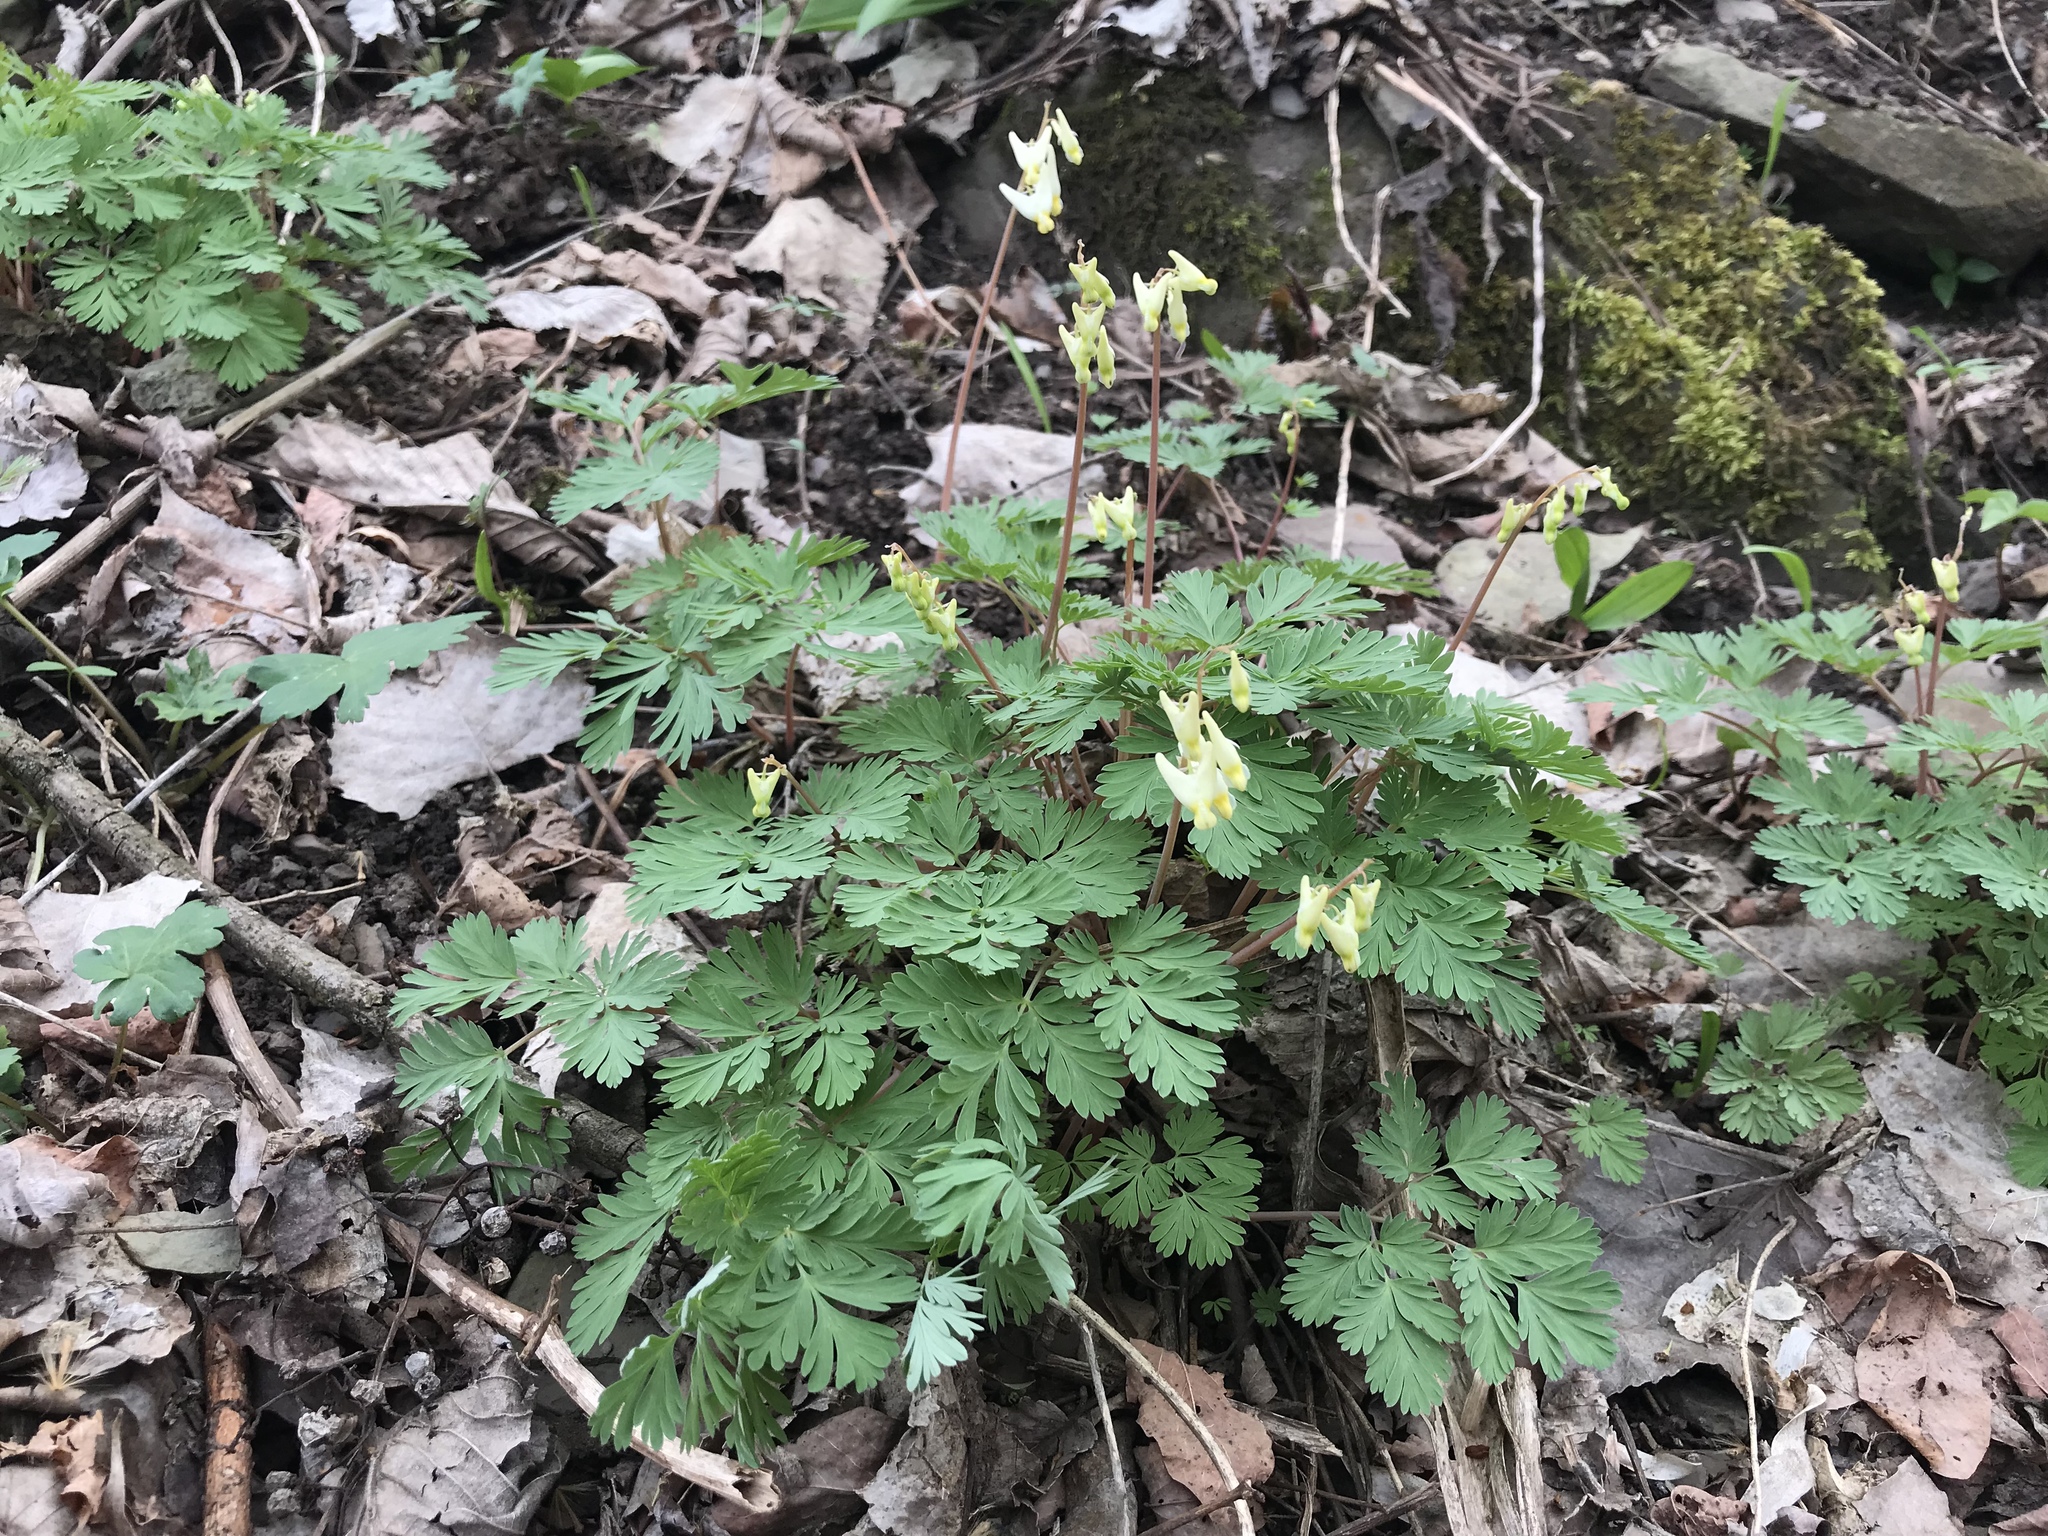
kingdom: Plantae
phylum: Tracheophyta
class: Magnoliopsida
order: Ranunculales
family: Papaveraceae
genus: Dicentra
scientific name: Dicentra cucullaria
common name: Dutchman's breeches
